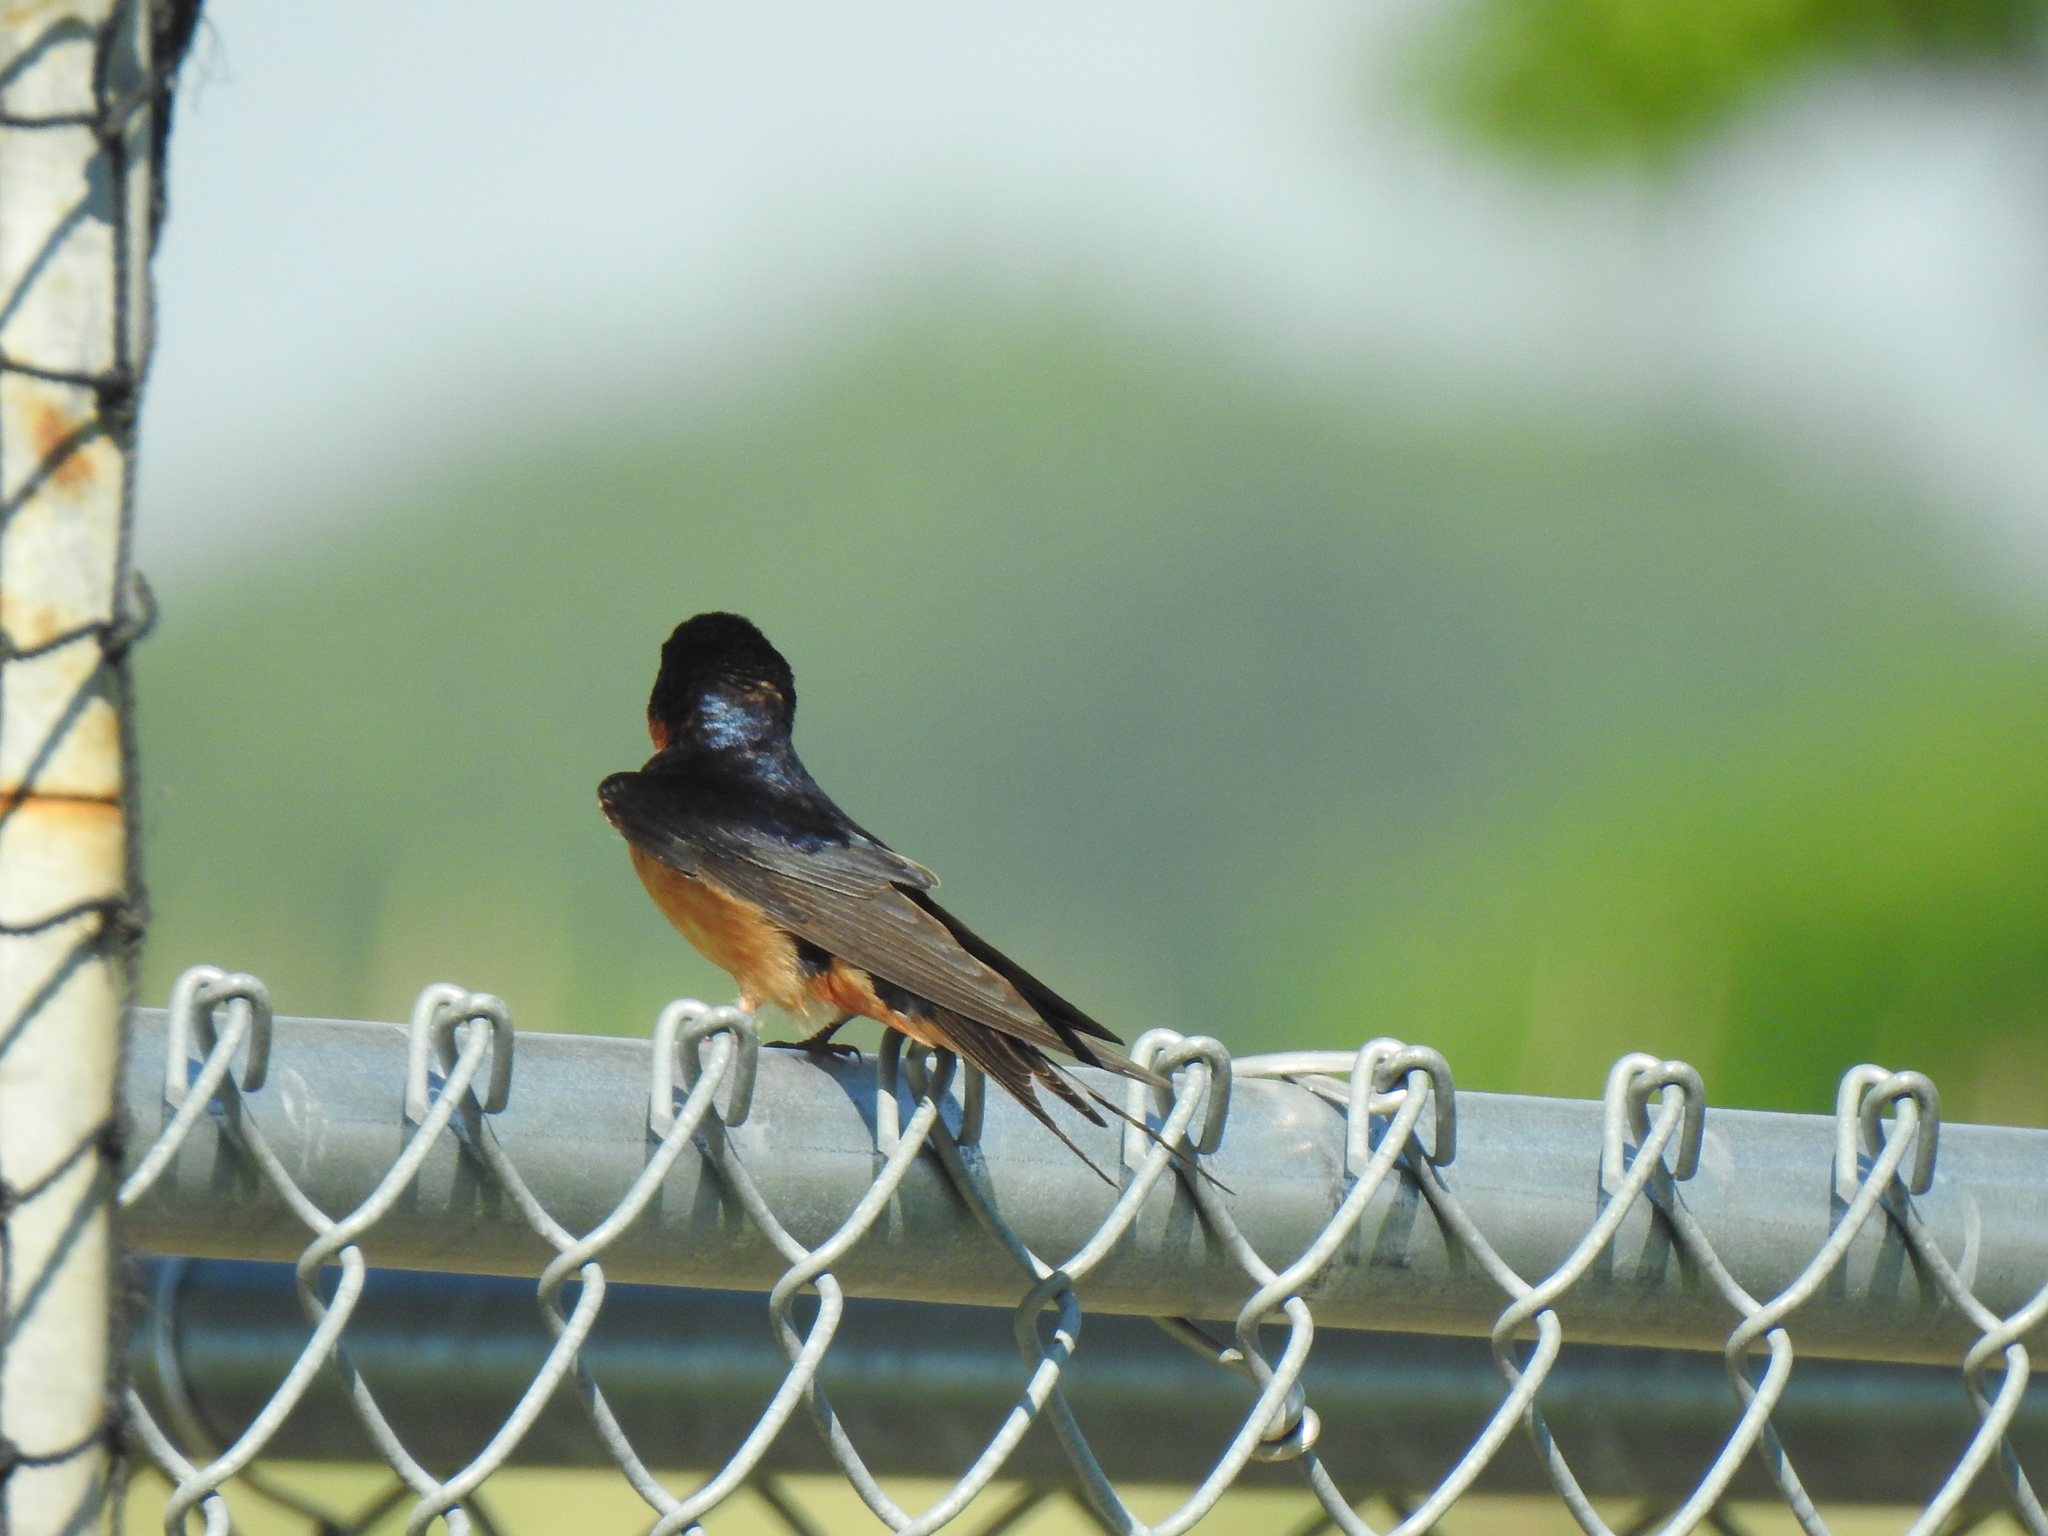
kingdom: Animalia
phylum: Chordata
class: Aves
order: Passeriformes
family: Hirundinidae
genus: Hirundo
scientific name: Hirundo rustica
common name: Barn swallow
